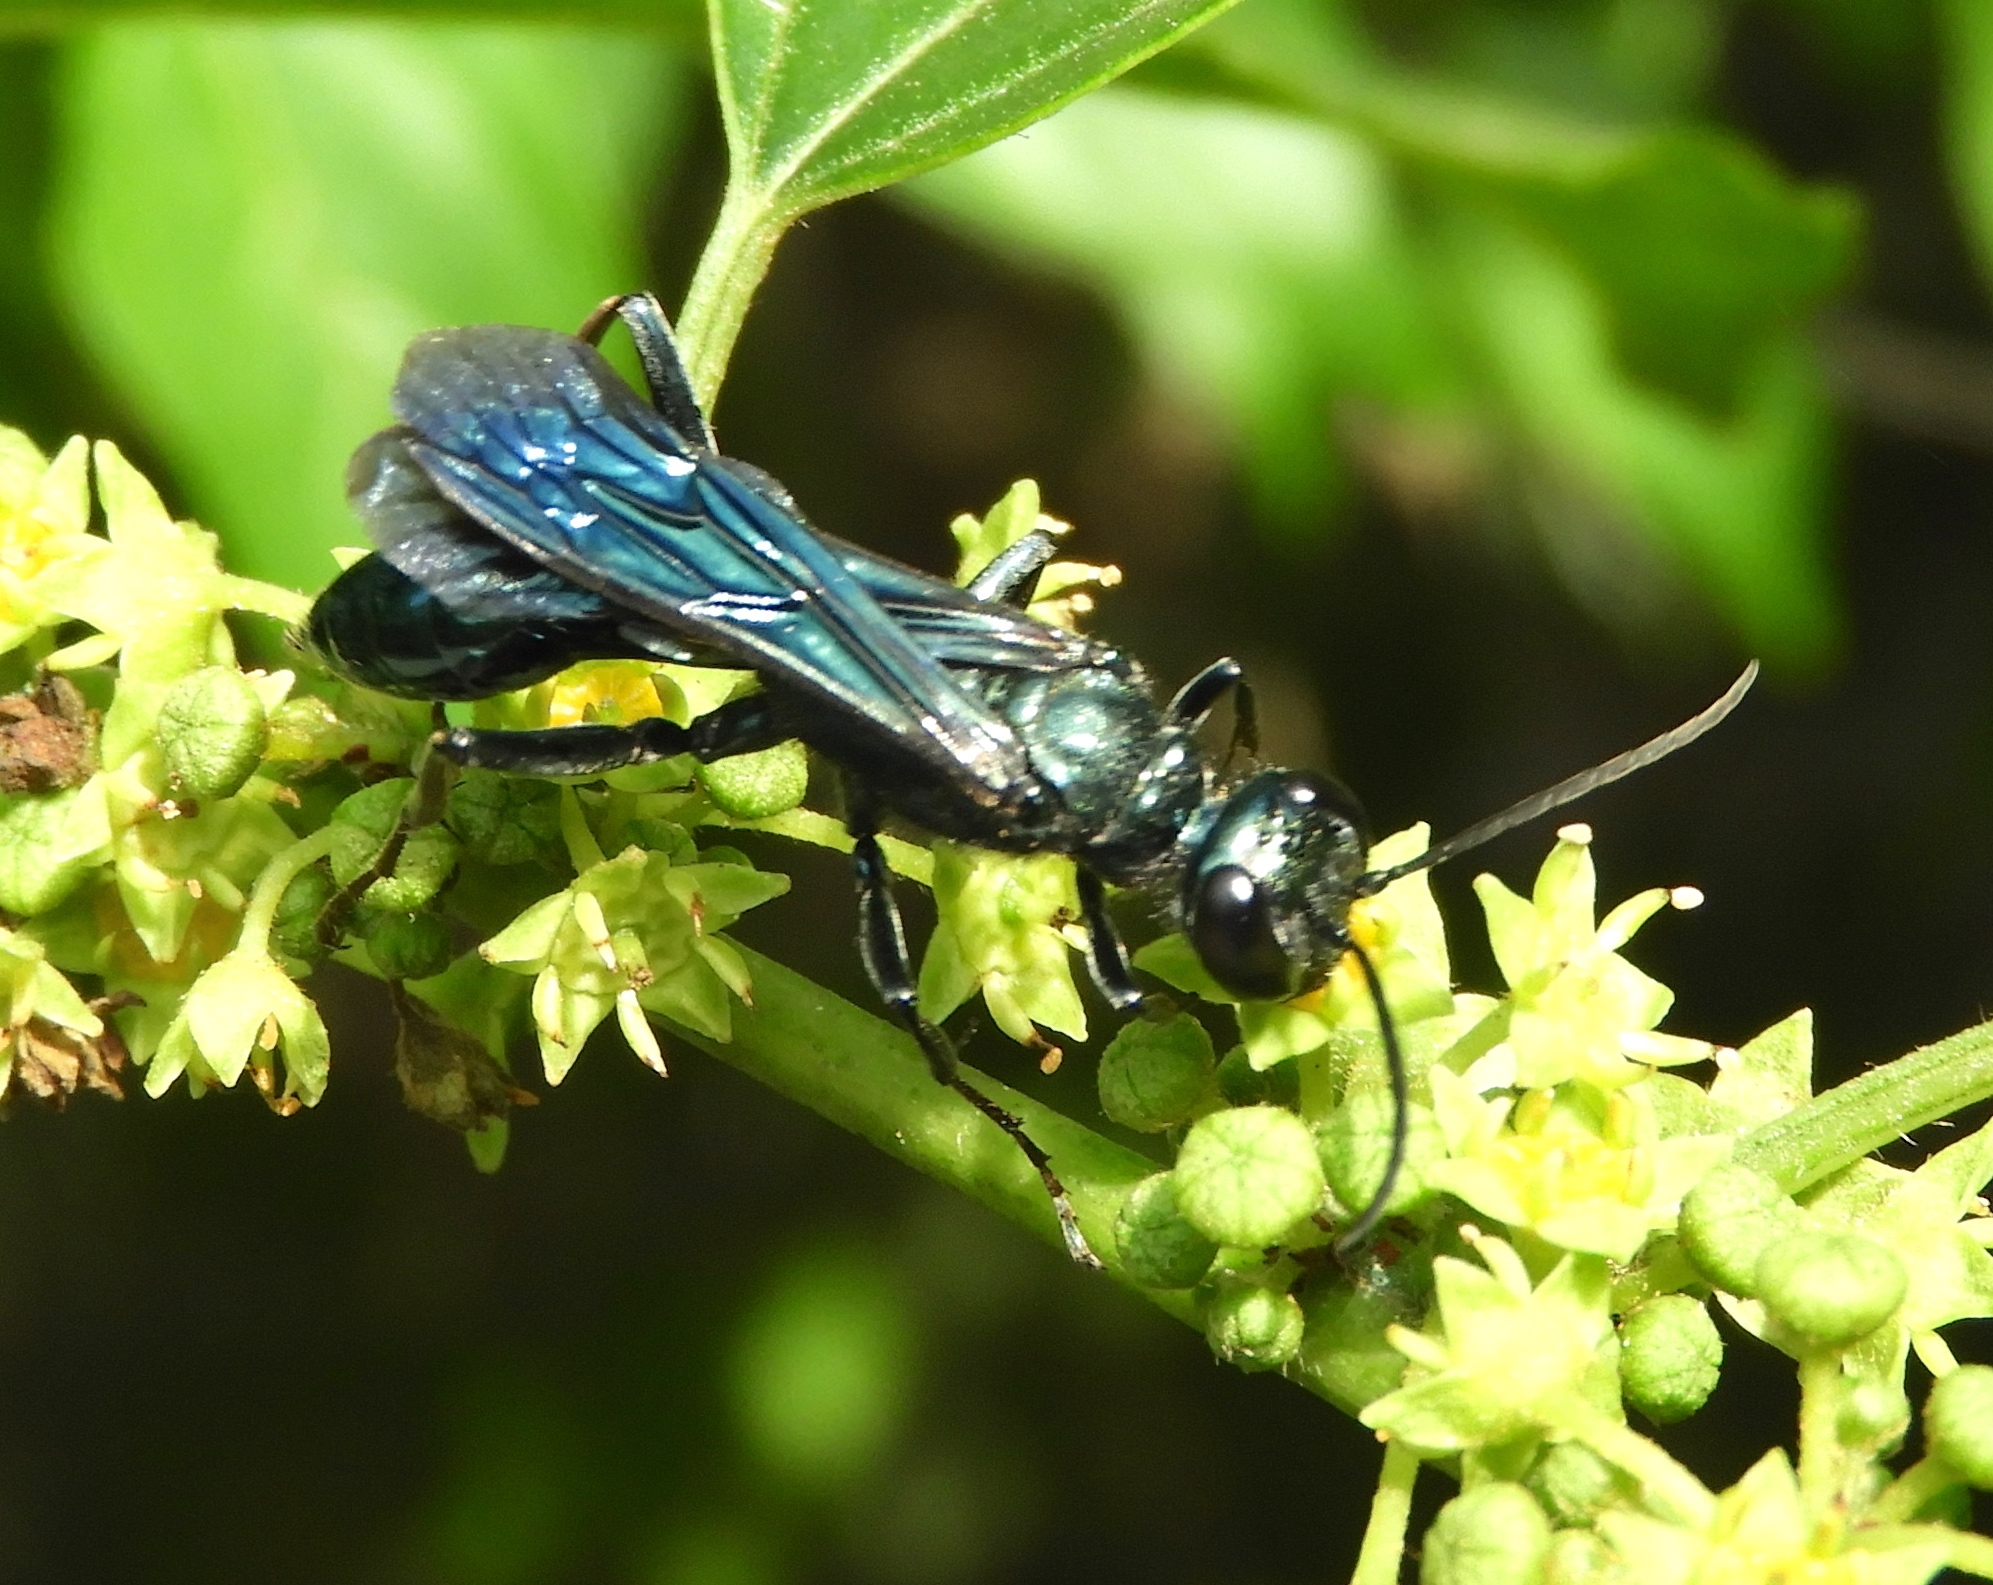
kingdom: Animalia
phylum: Arthropoda
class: Insecta
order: Hymenoptera
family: Sphecidae
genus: Chalybion
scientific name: Chalybion californicum
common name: Mud dauber
